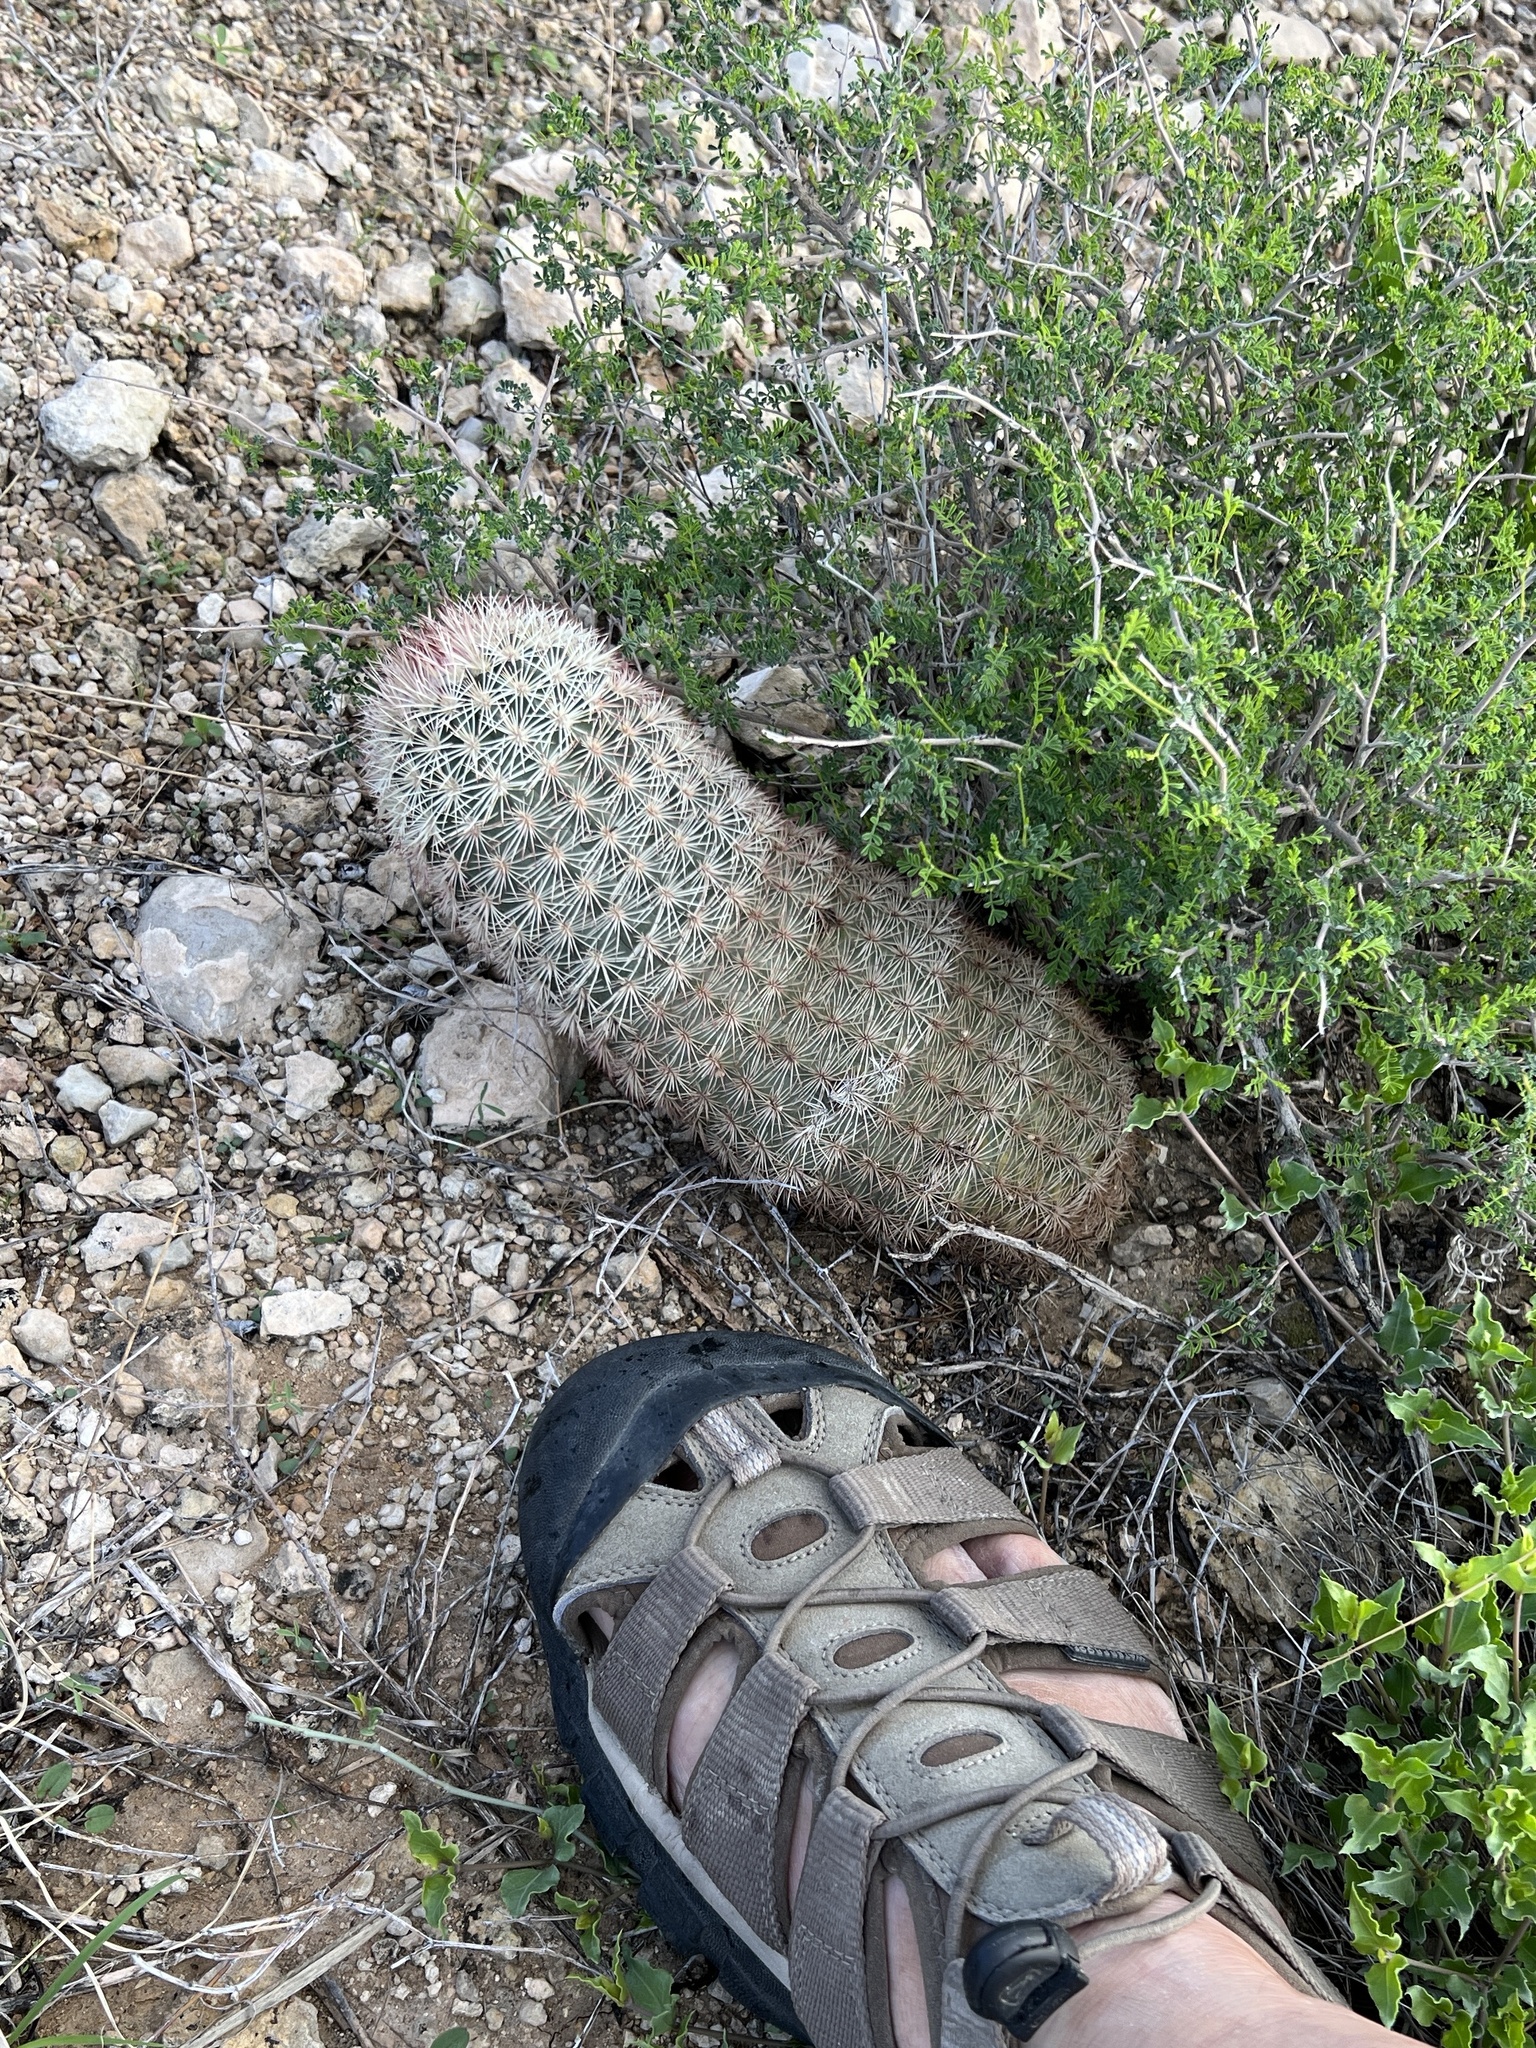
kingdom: Plantae
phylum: Tracheophyta
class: Magnoliopsida
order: Caryophyllales
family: Cactaceae
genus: Echinocereus
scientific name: Echinocereus dasyacanthus
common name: Spiny hedgehog cactus
